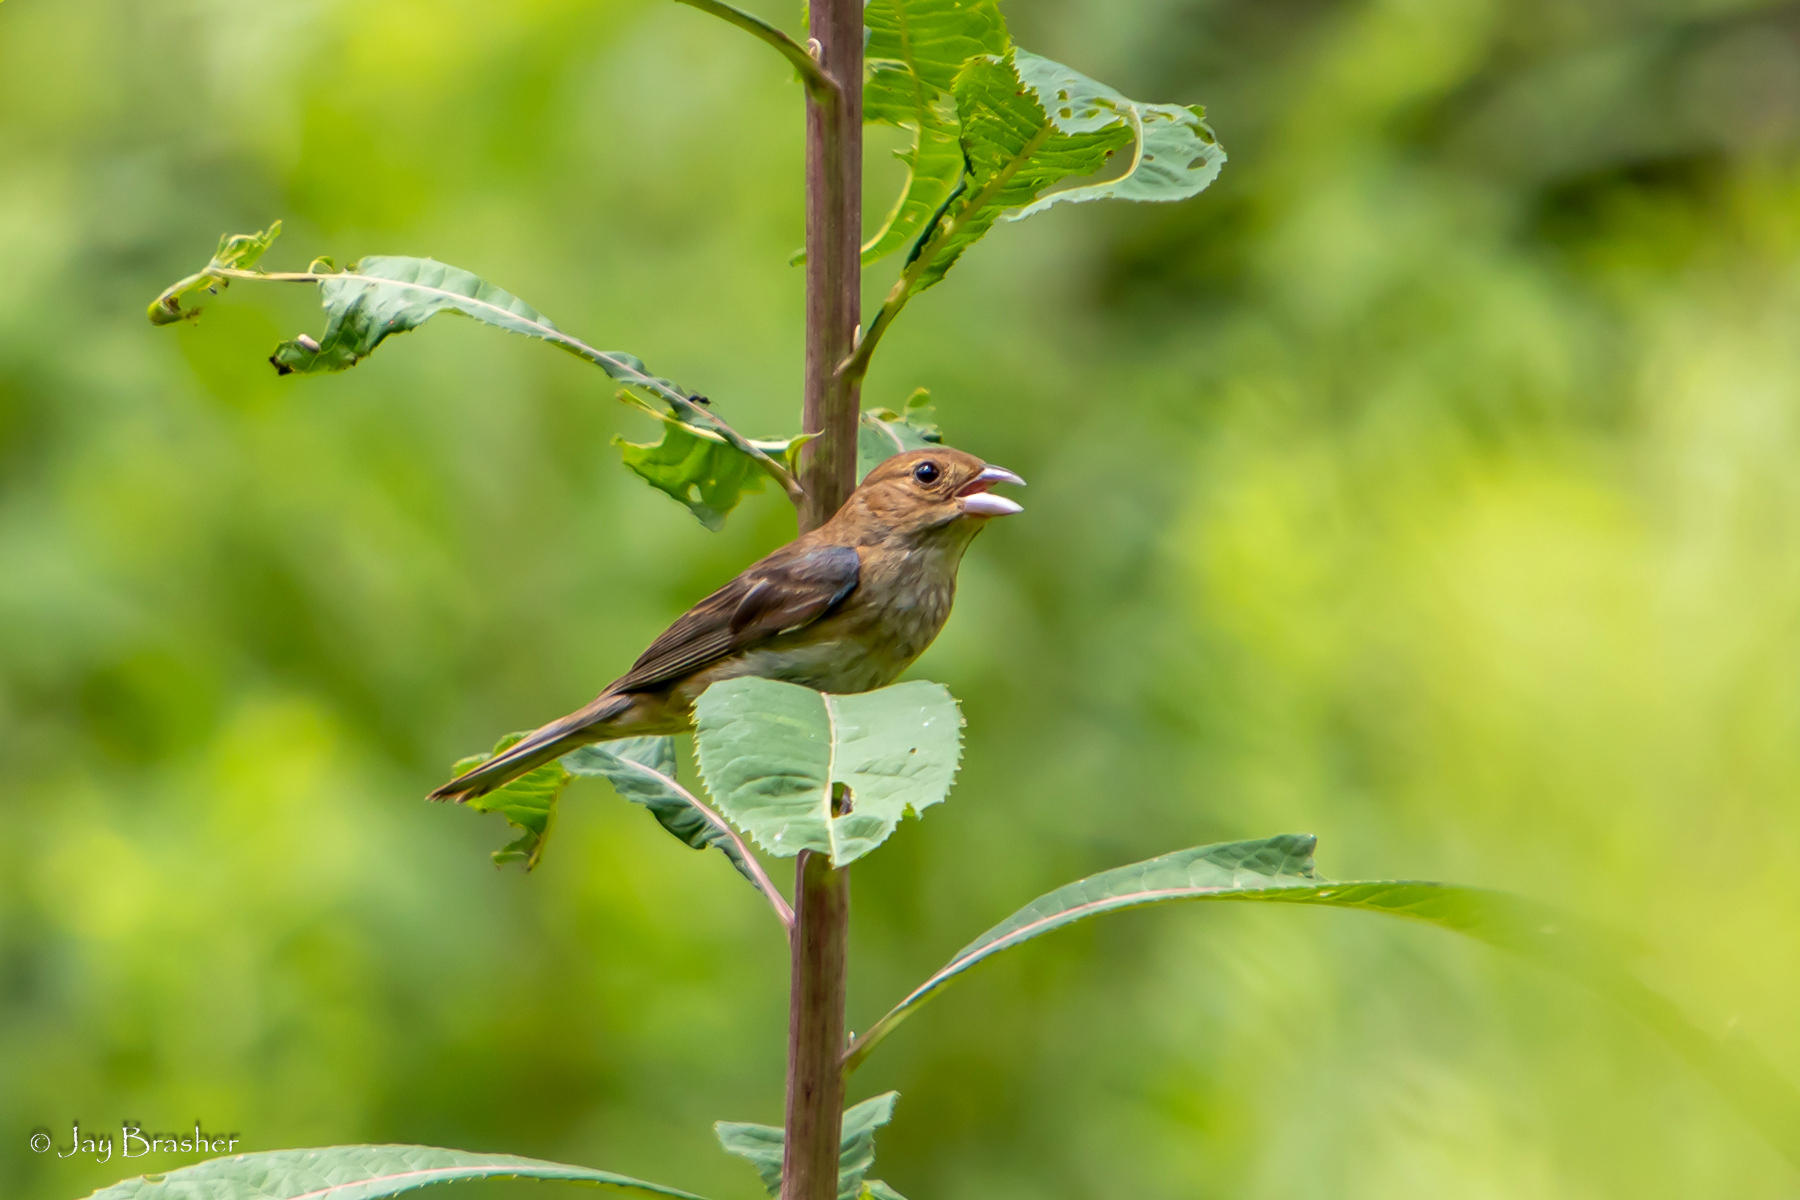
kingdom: Animalia
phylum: Chordata
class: Aves
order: Passeriformes
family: Cardinalidae
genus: Passerina
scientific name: Passerina cyanea
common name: Indigo bunting
